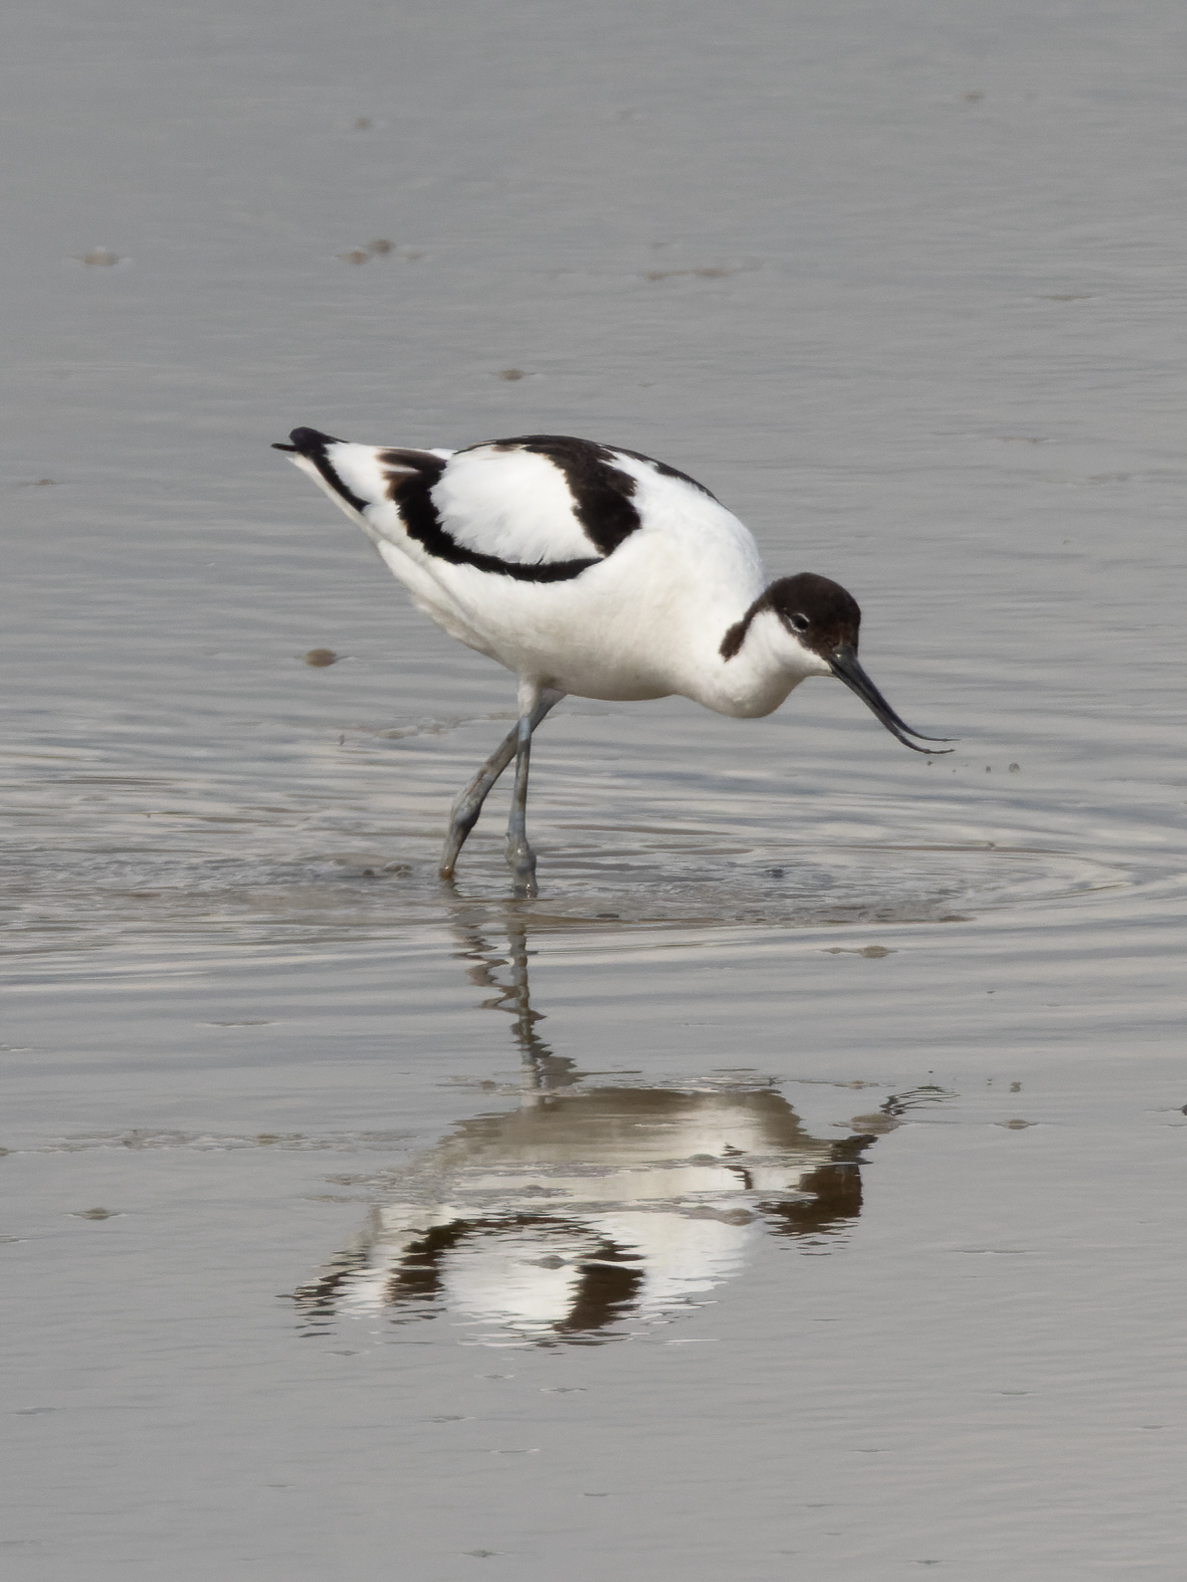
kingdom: Animalia
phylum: Chordata
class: Aves
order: Charadriiformes
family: Recurvirostridae
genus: Recurvirostra
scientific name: Recurvirostra avosetta
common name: Pied avocet
